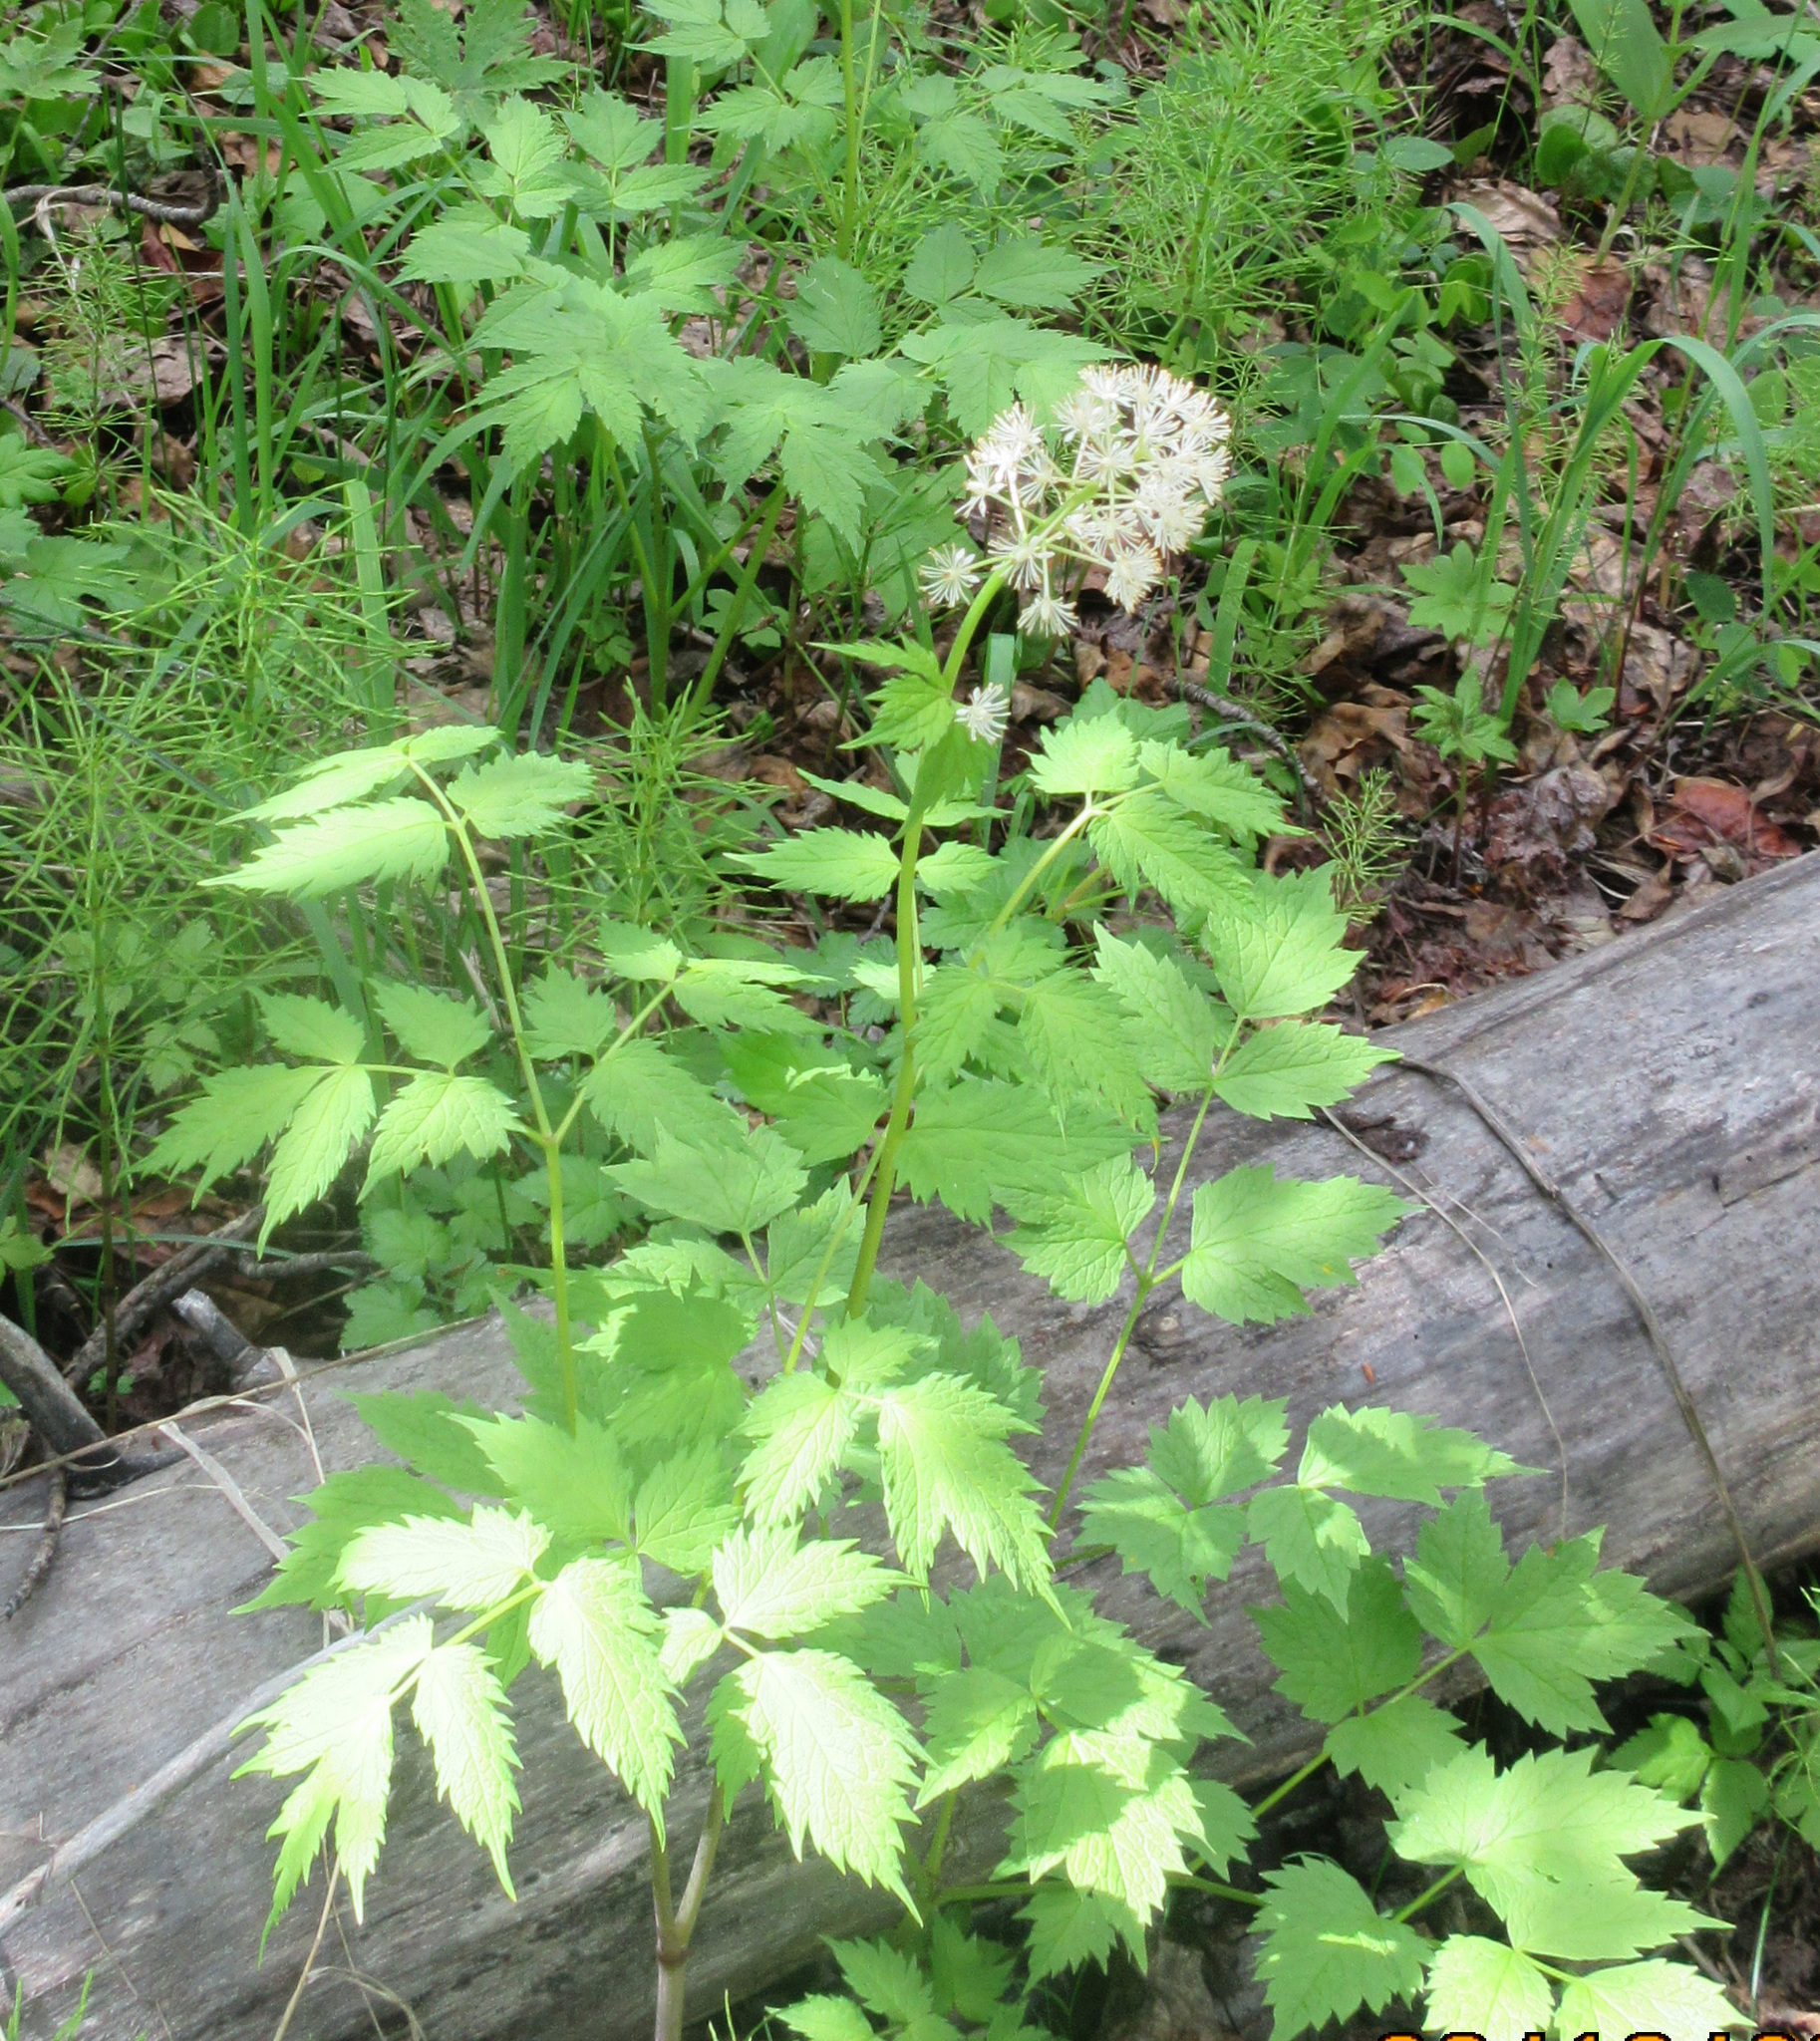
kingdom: Plantae
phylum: Tracheophyta
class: Magnoliopsida
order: Ranunculales
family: Ranunculaceae
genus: Actaea
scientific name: Actaea rubra
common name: Red baneberry
